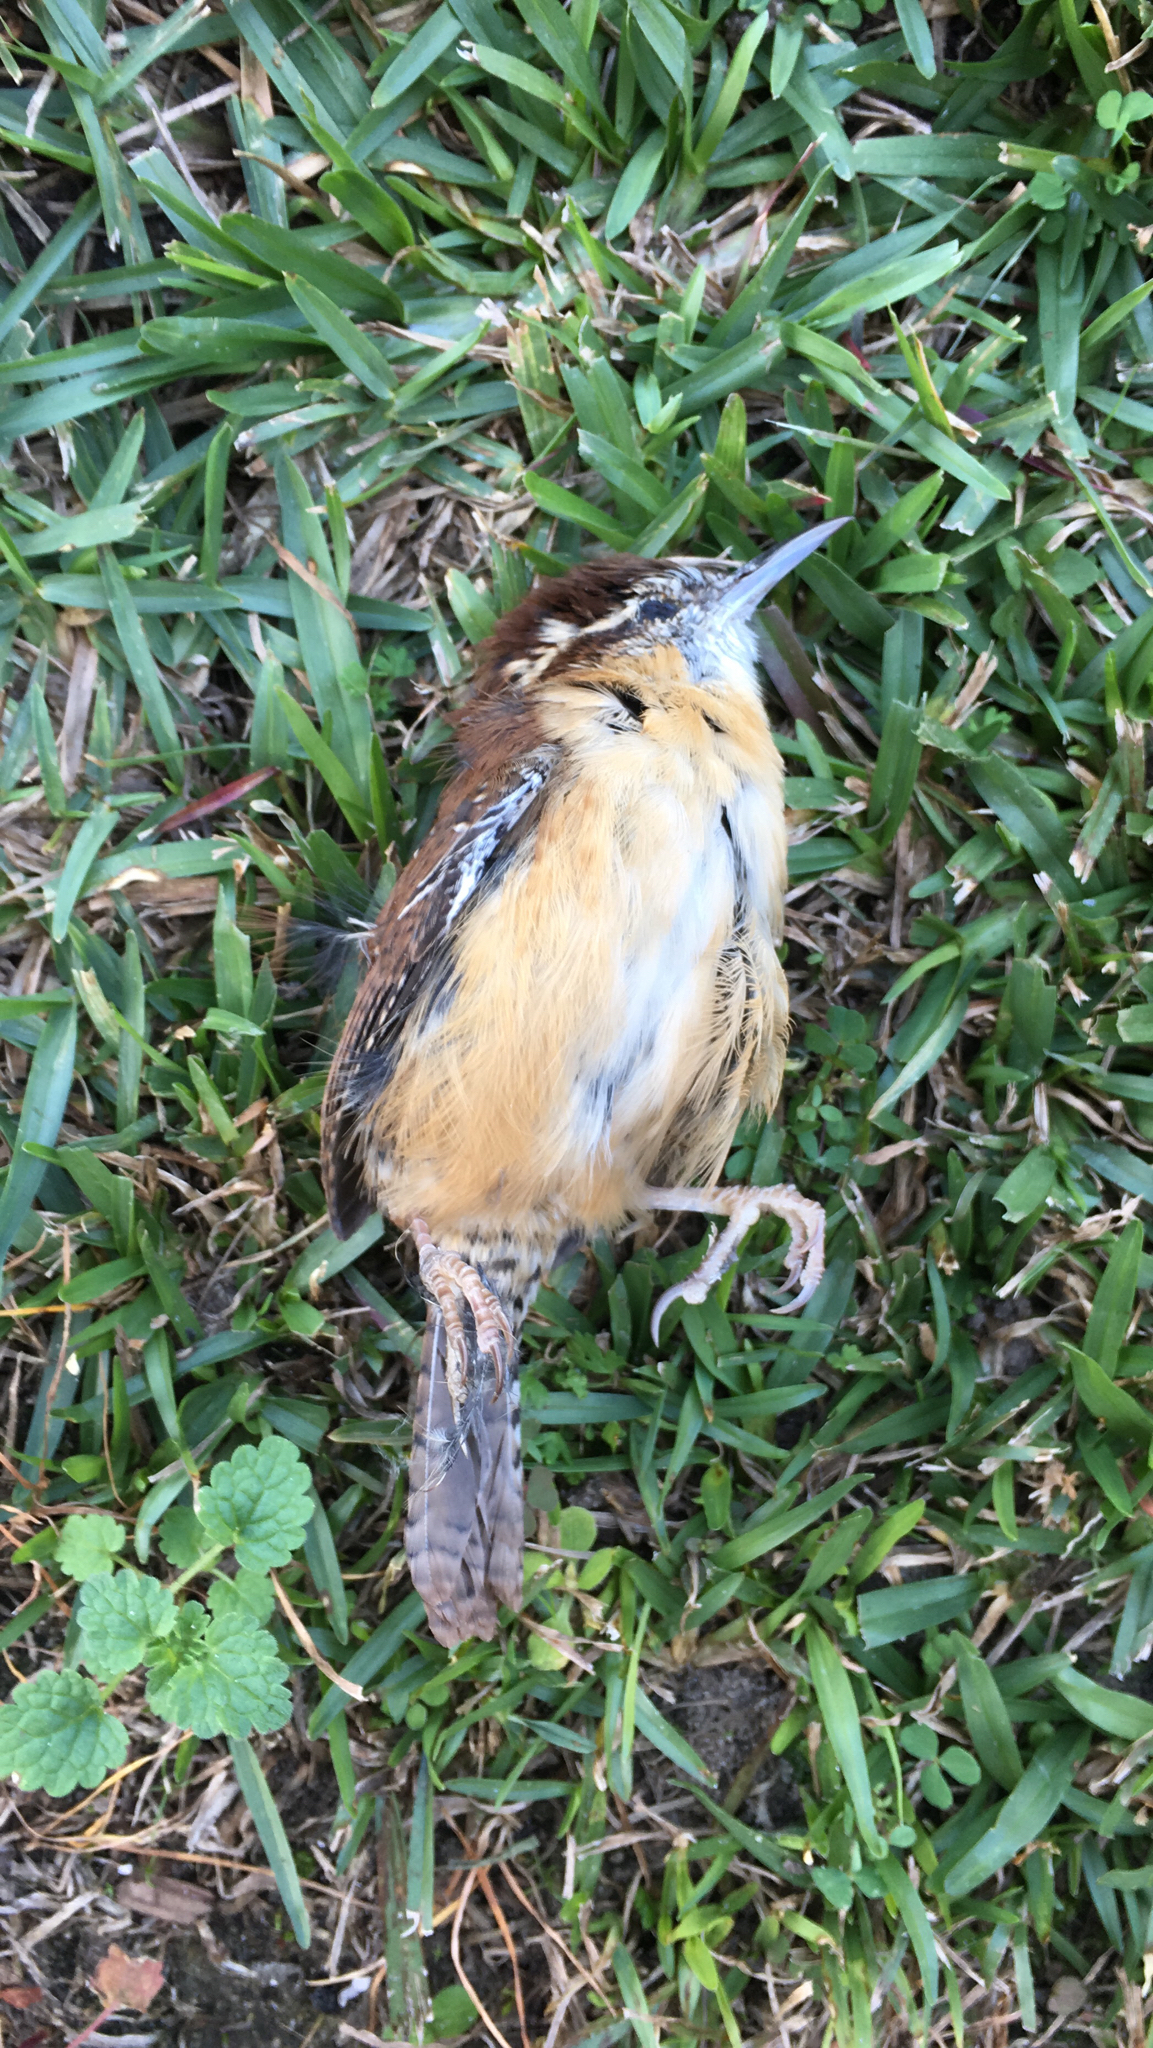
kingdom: Animalia
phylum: Chordata
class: Aves
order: Passeriformes
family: Troglodytidae
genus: Thryothorus
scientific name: Thryothorus ludovicianus
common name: Carolina wren
